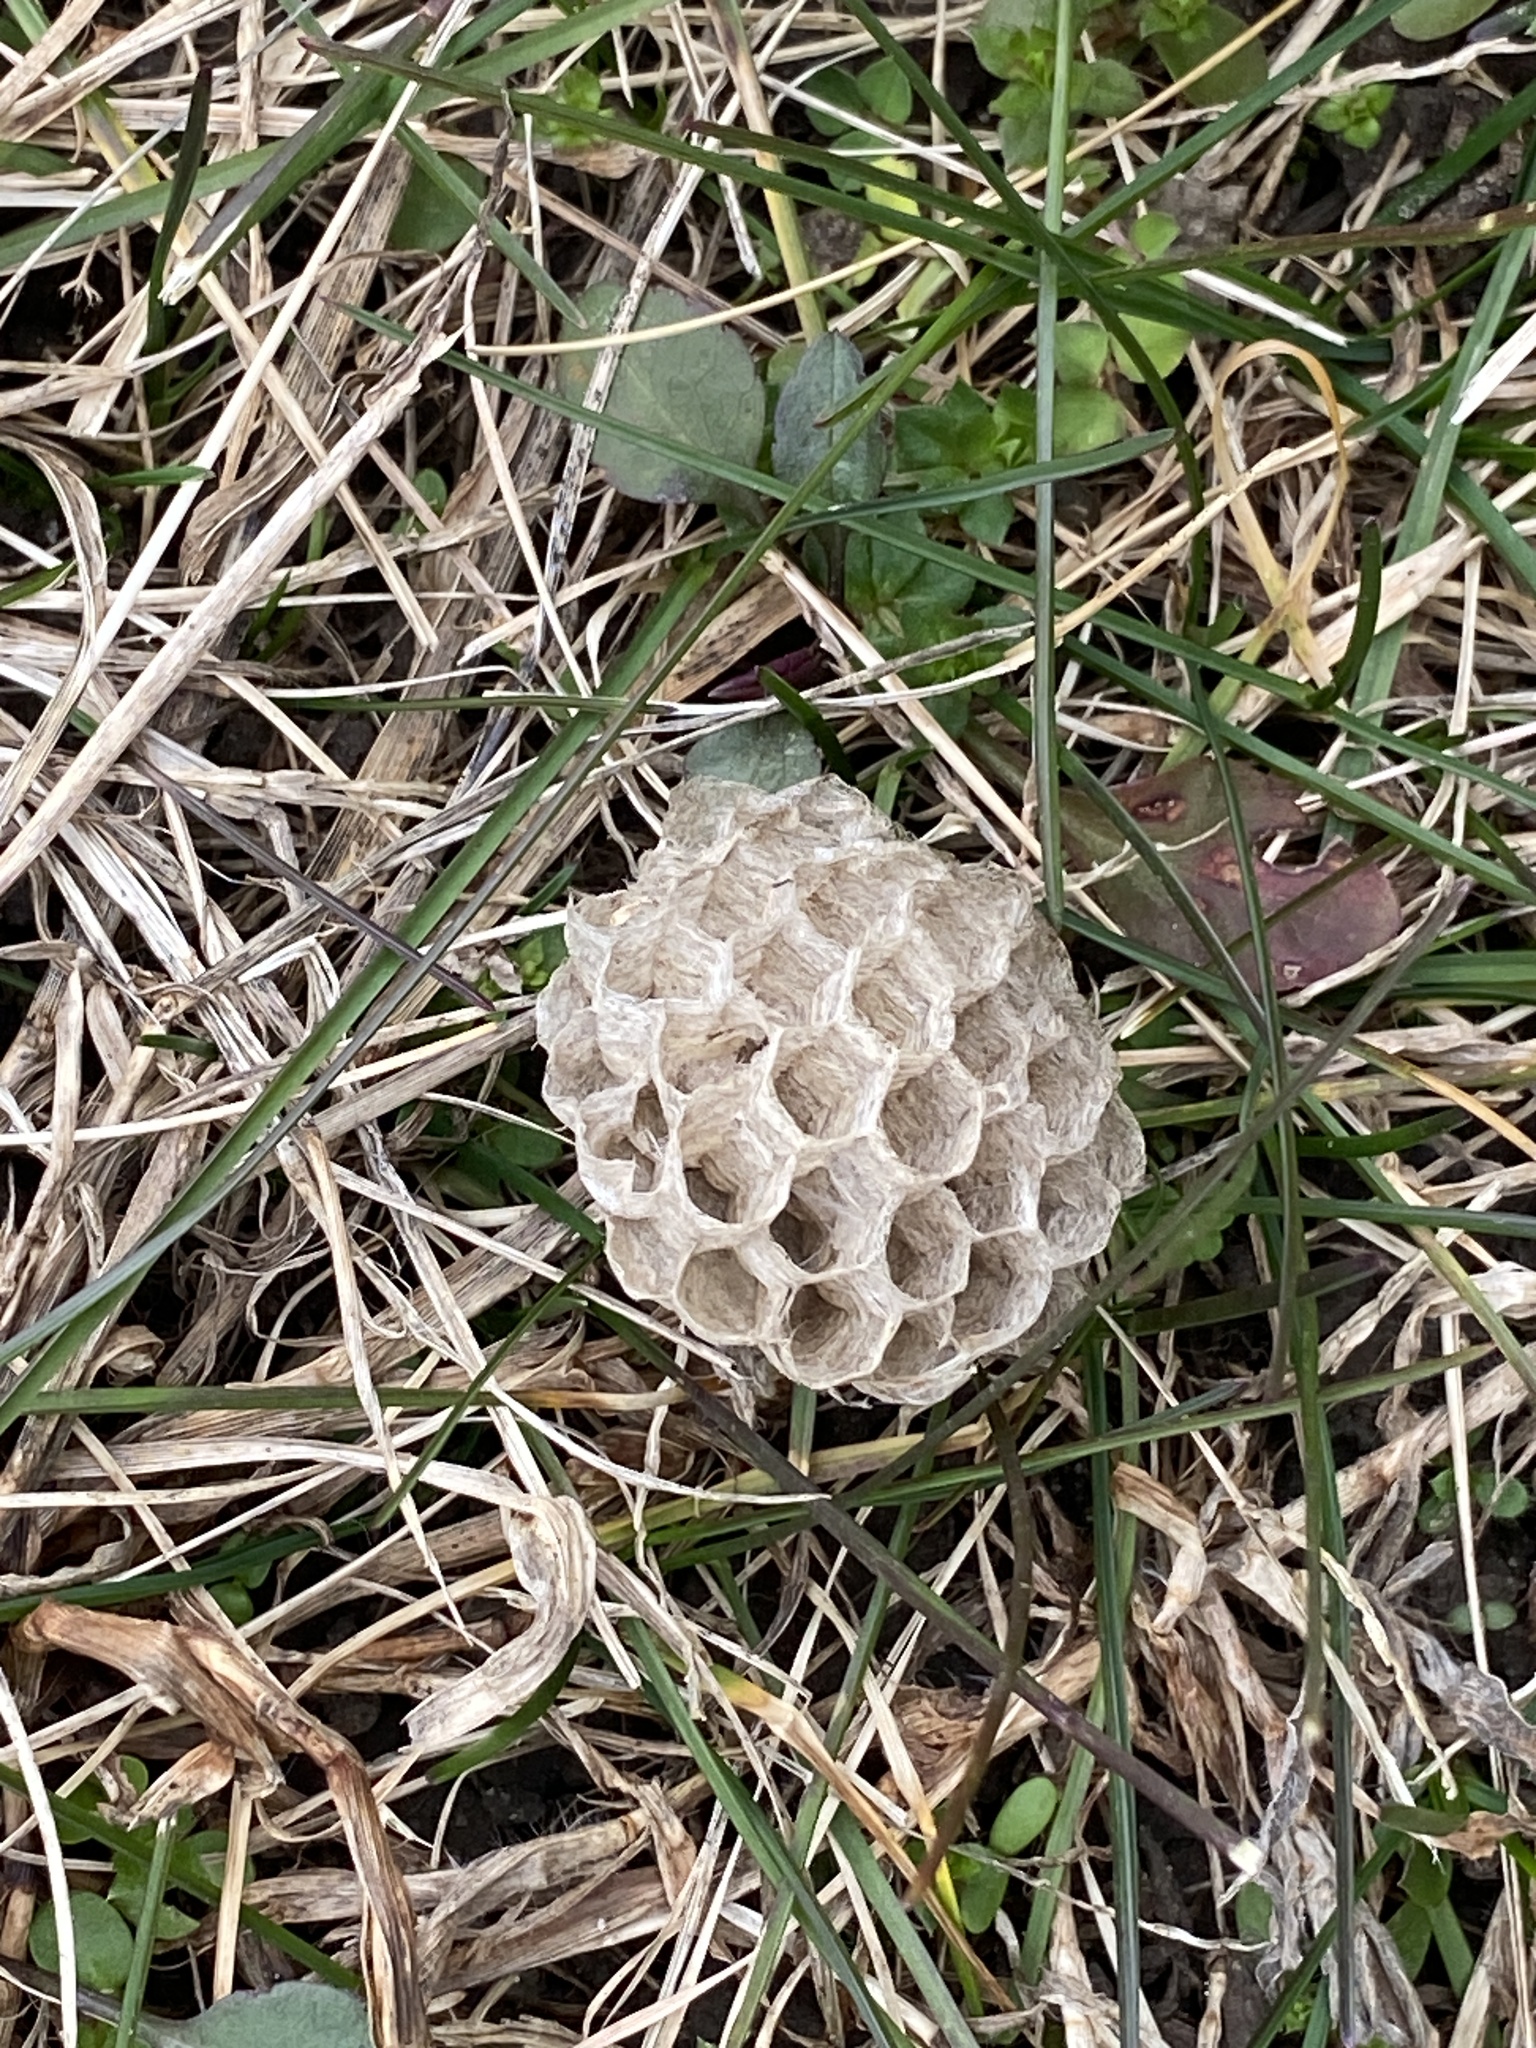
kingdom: Animalia
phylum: Arthropoda
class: Insecta
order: Hymenoptera
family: Eumenidae
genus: Polistes
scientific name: Polistes
